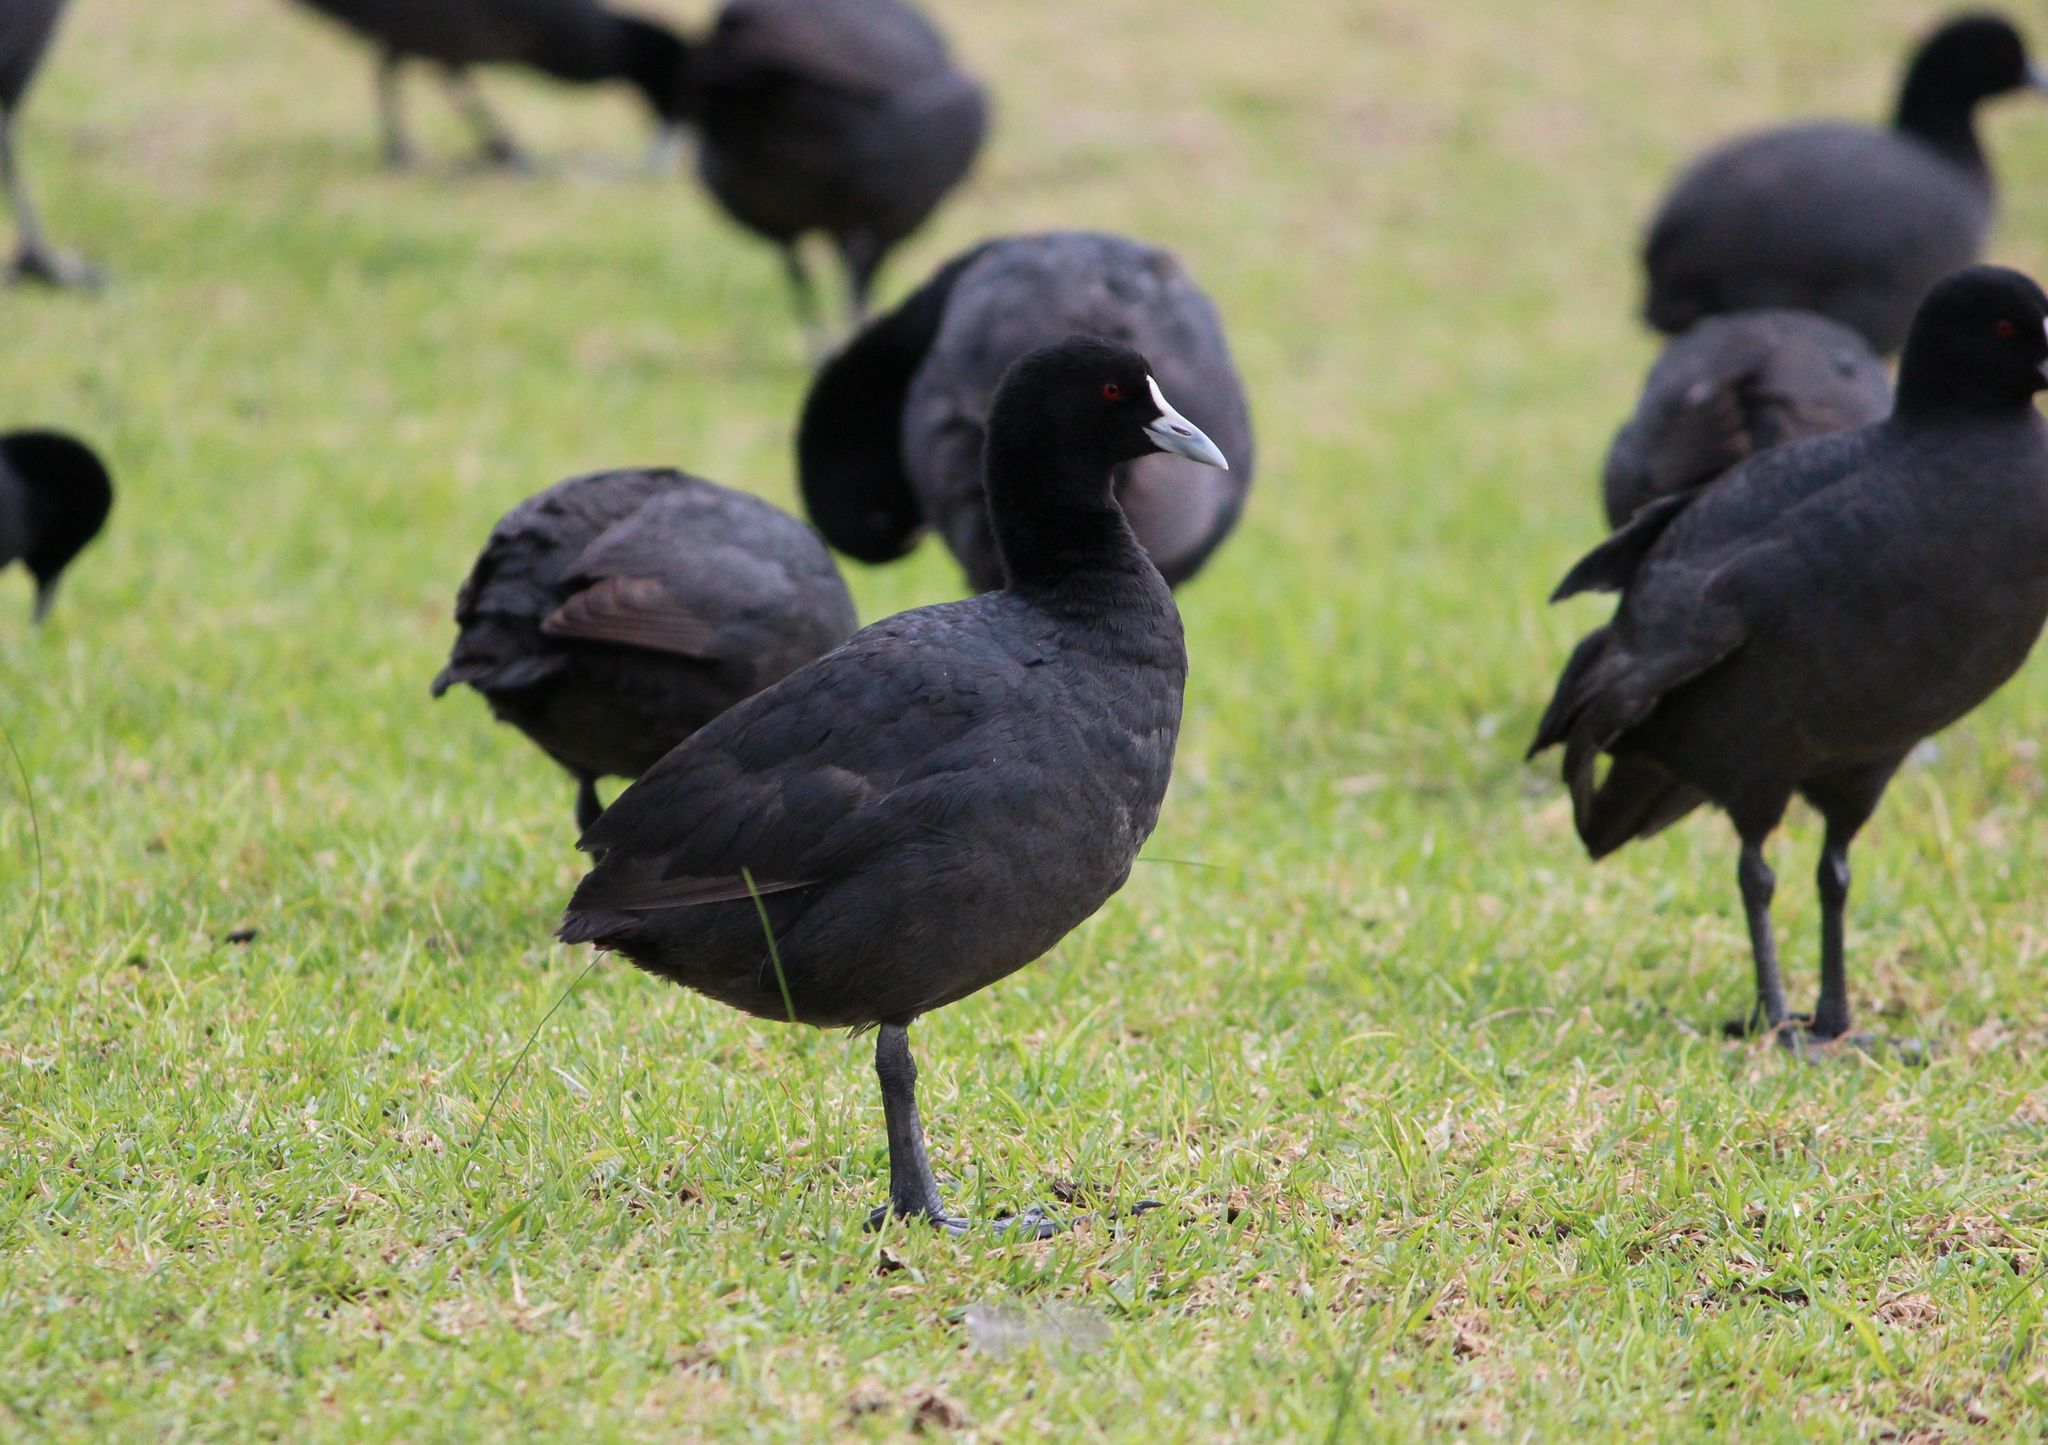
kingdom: Animalia
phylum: Chordata
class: Aves
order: Gruiformes
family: Rallidae
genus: Fulica
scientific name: Fulica atra
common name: Eurasian coot
